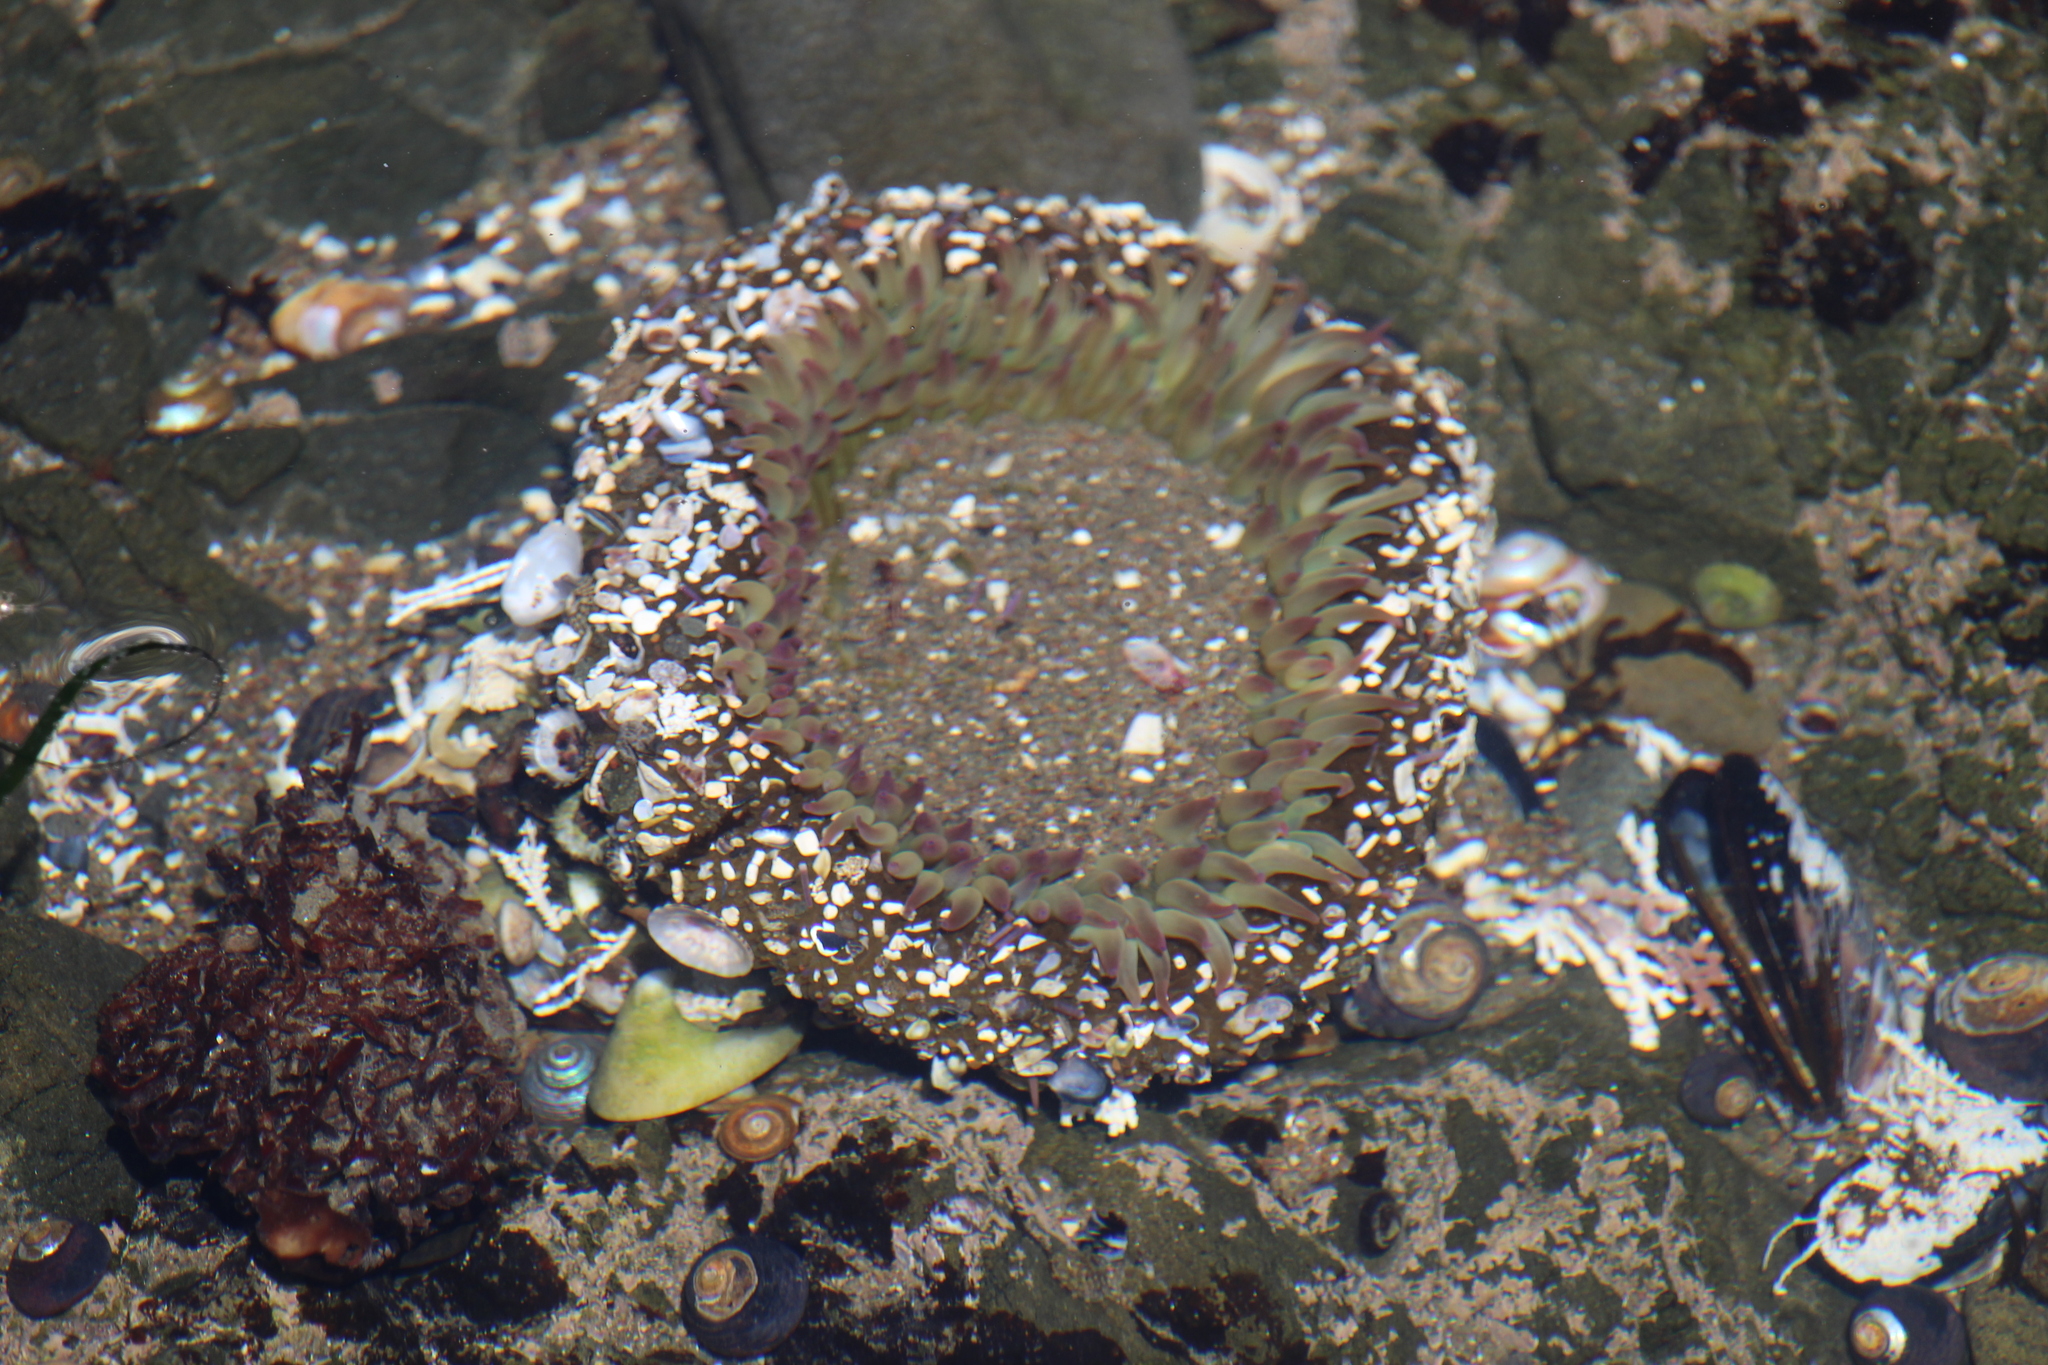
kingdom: Animalia
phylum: Cnidaria
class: Anthozoa
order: Actiniaria
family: Actiniidae
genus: Anthopleura
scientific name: Anthopleura sola
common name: Sun anemone
